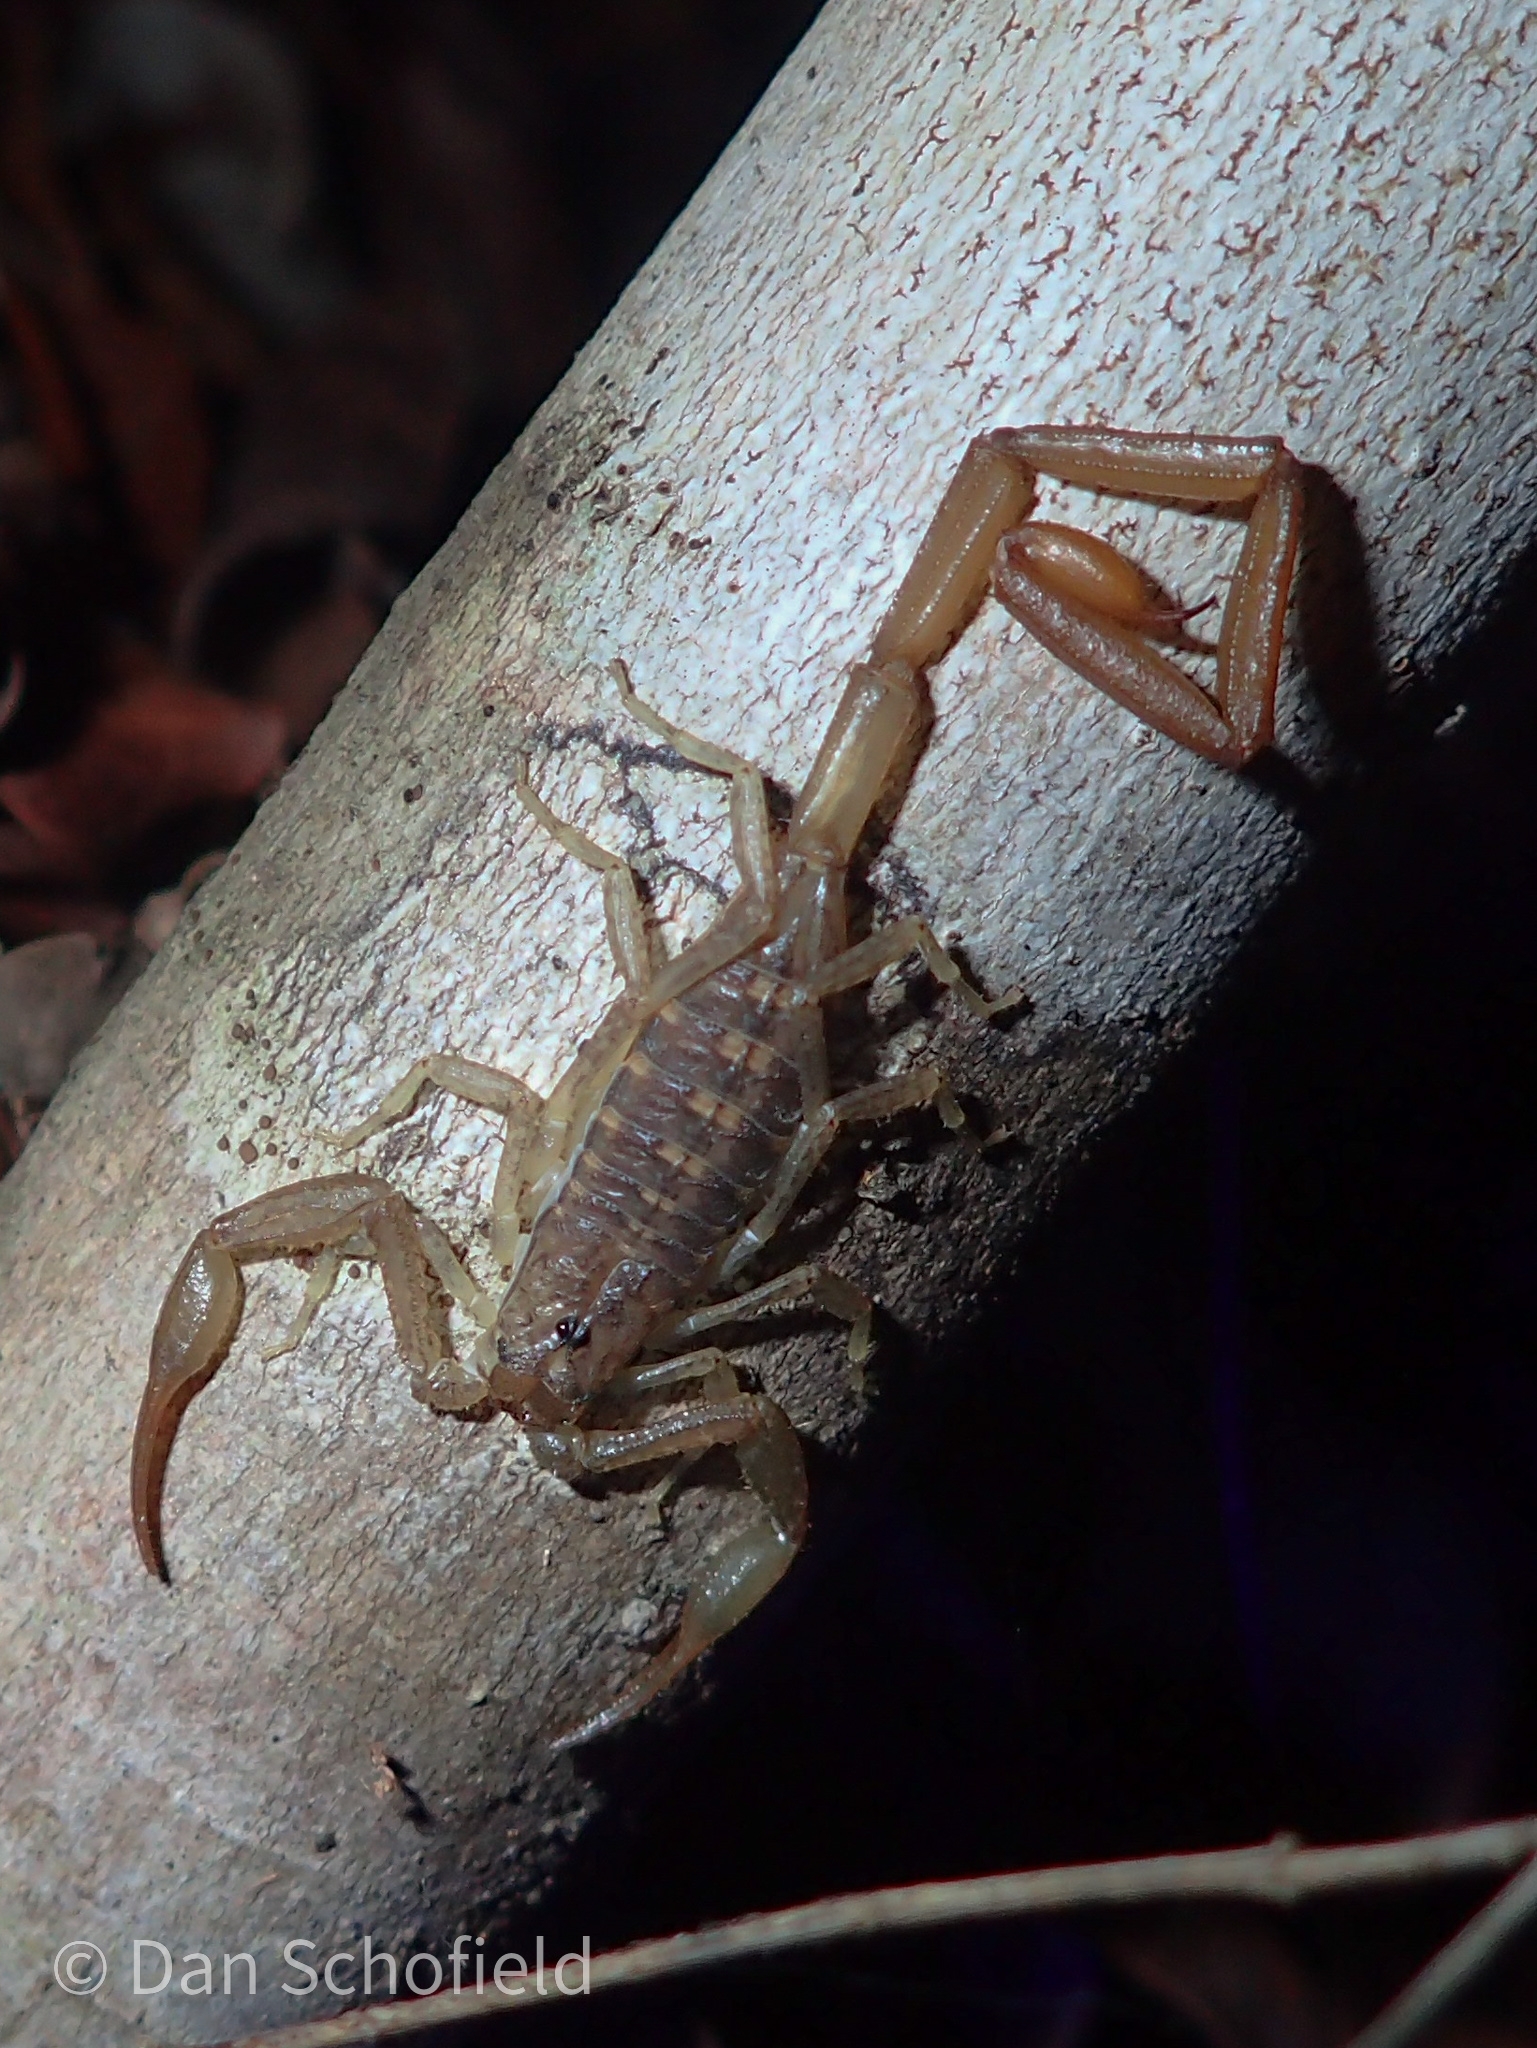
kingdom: Animalia
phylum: Arthropoda
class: Arachnida
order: Scorpiones
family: Buthidae
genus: Centruroides
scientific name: Centruroides barbudensis
